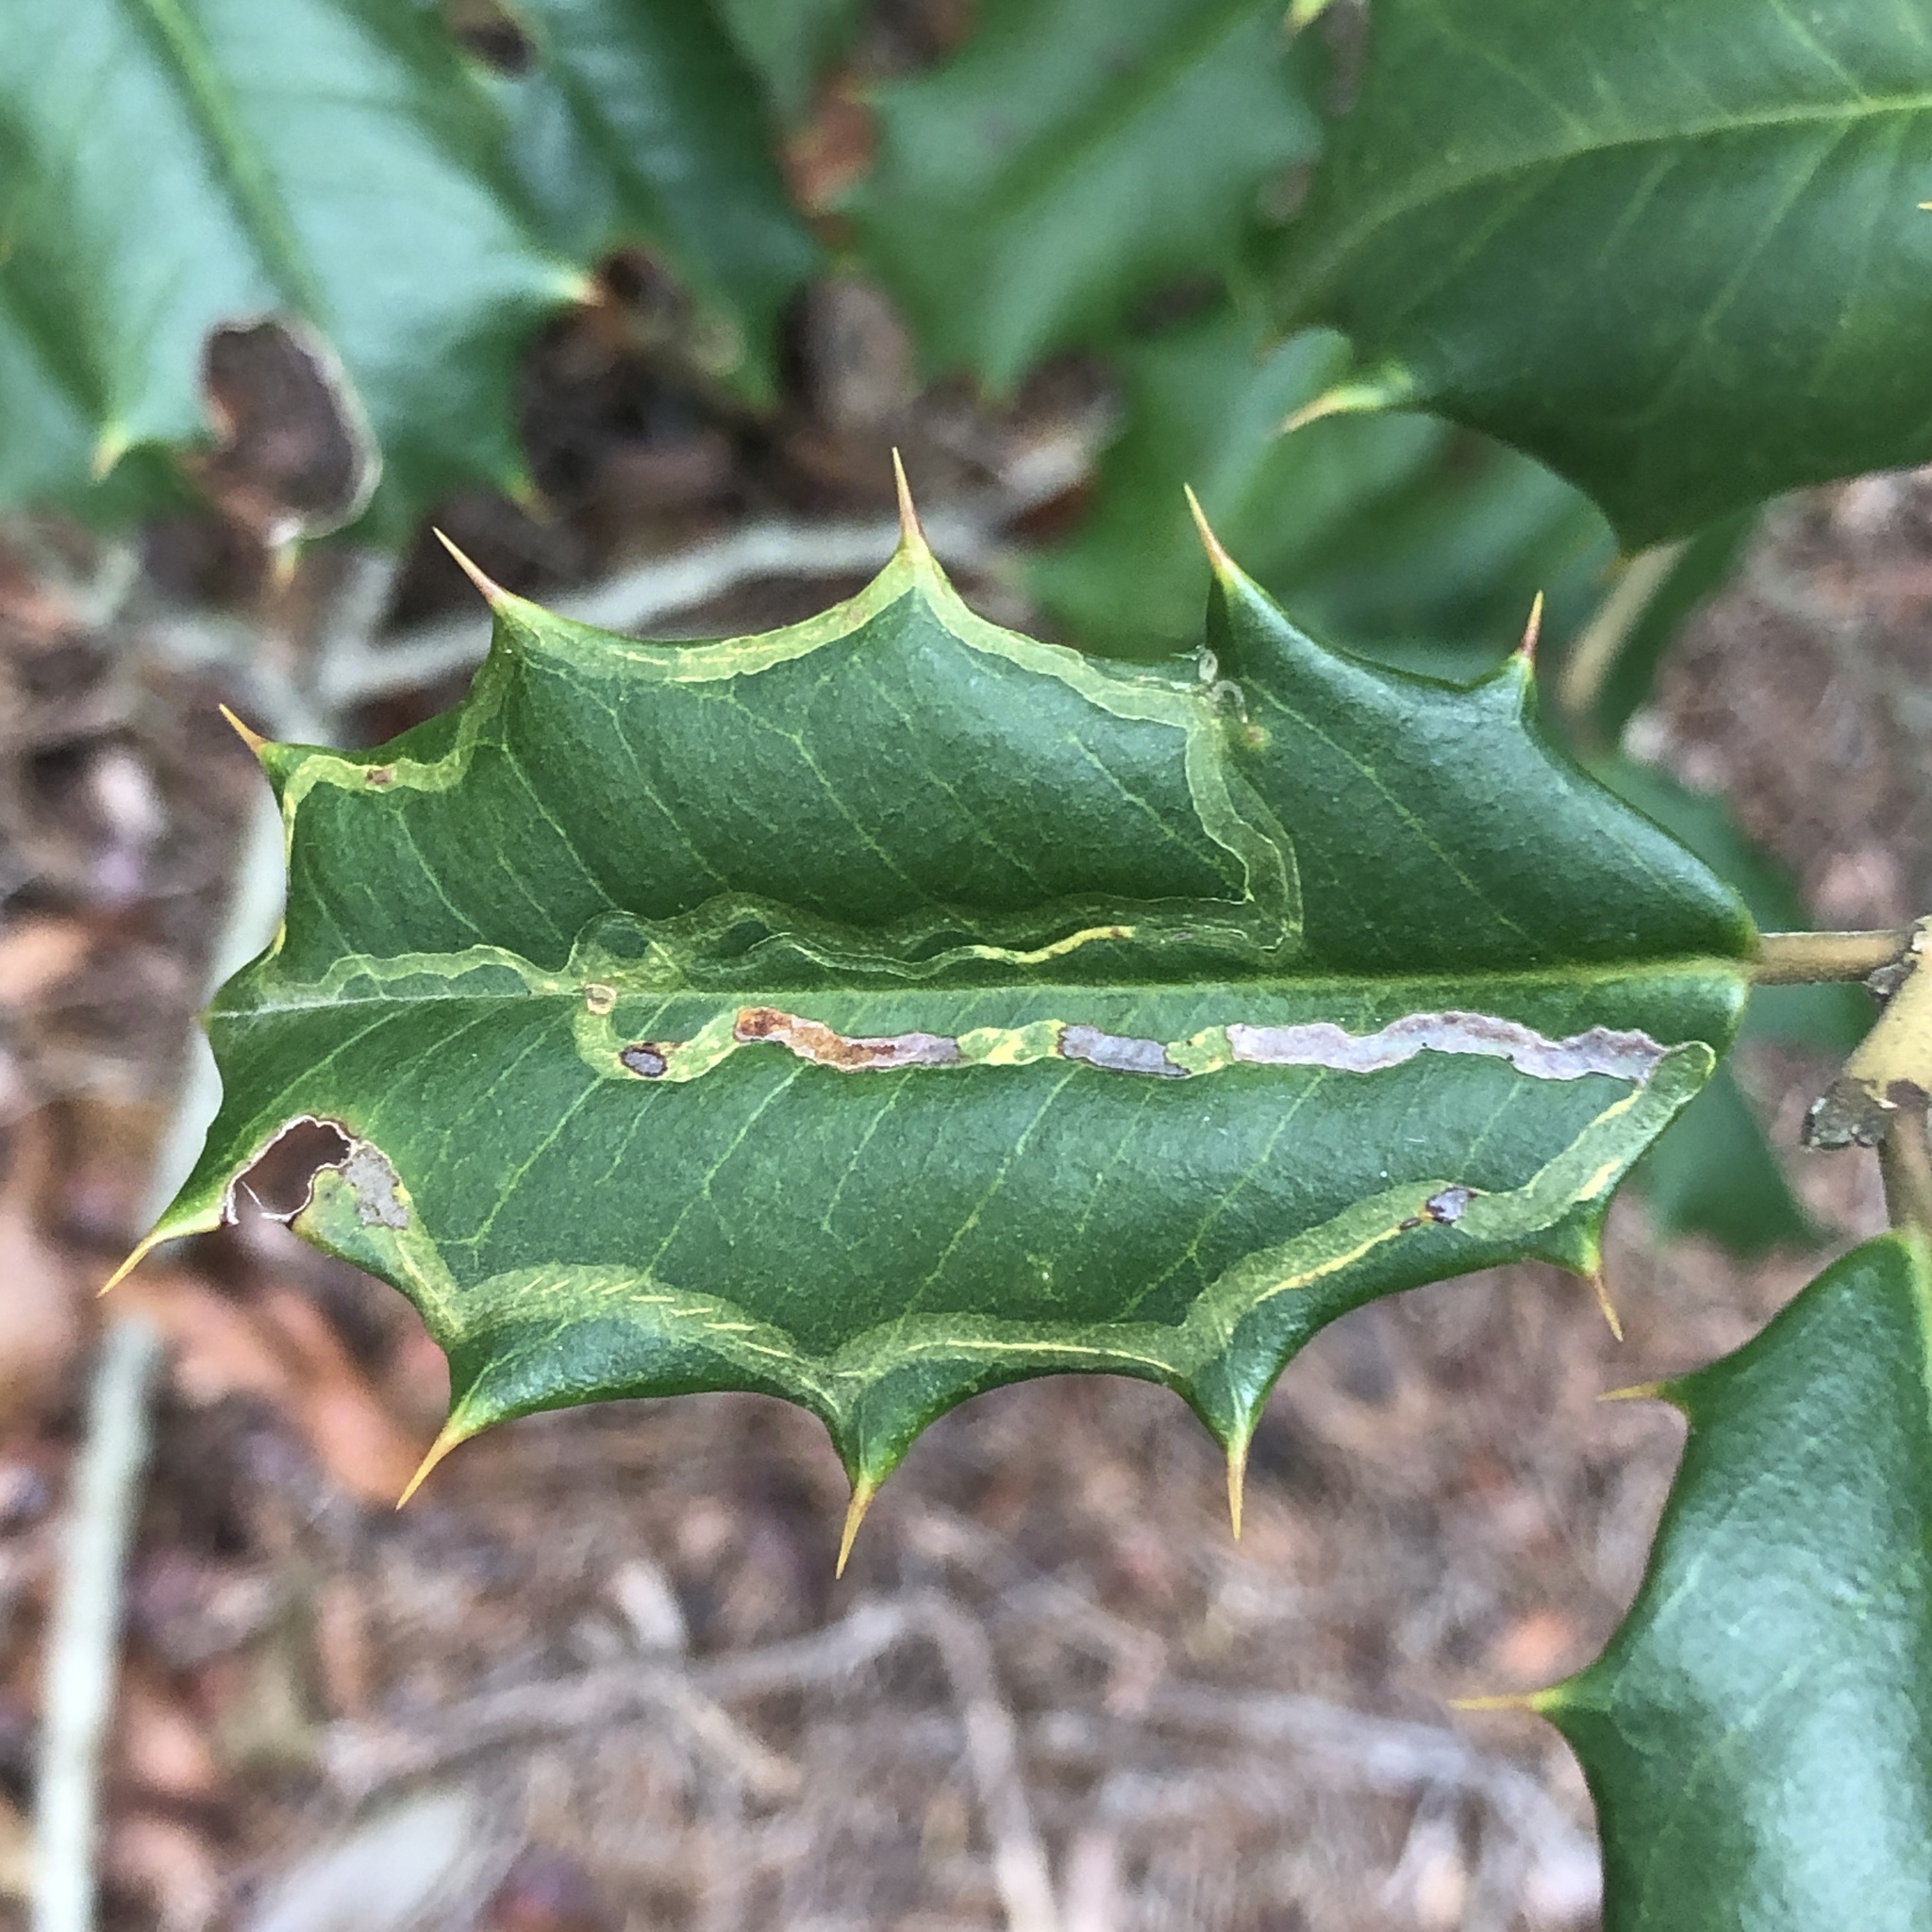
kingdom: Animalia
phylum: Arthropoda
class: Insecta
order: Diptera
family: Agromyzidae
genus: Phytomyza
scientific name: Phytomyza opacae
